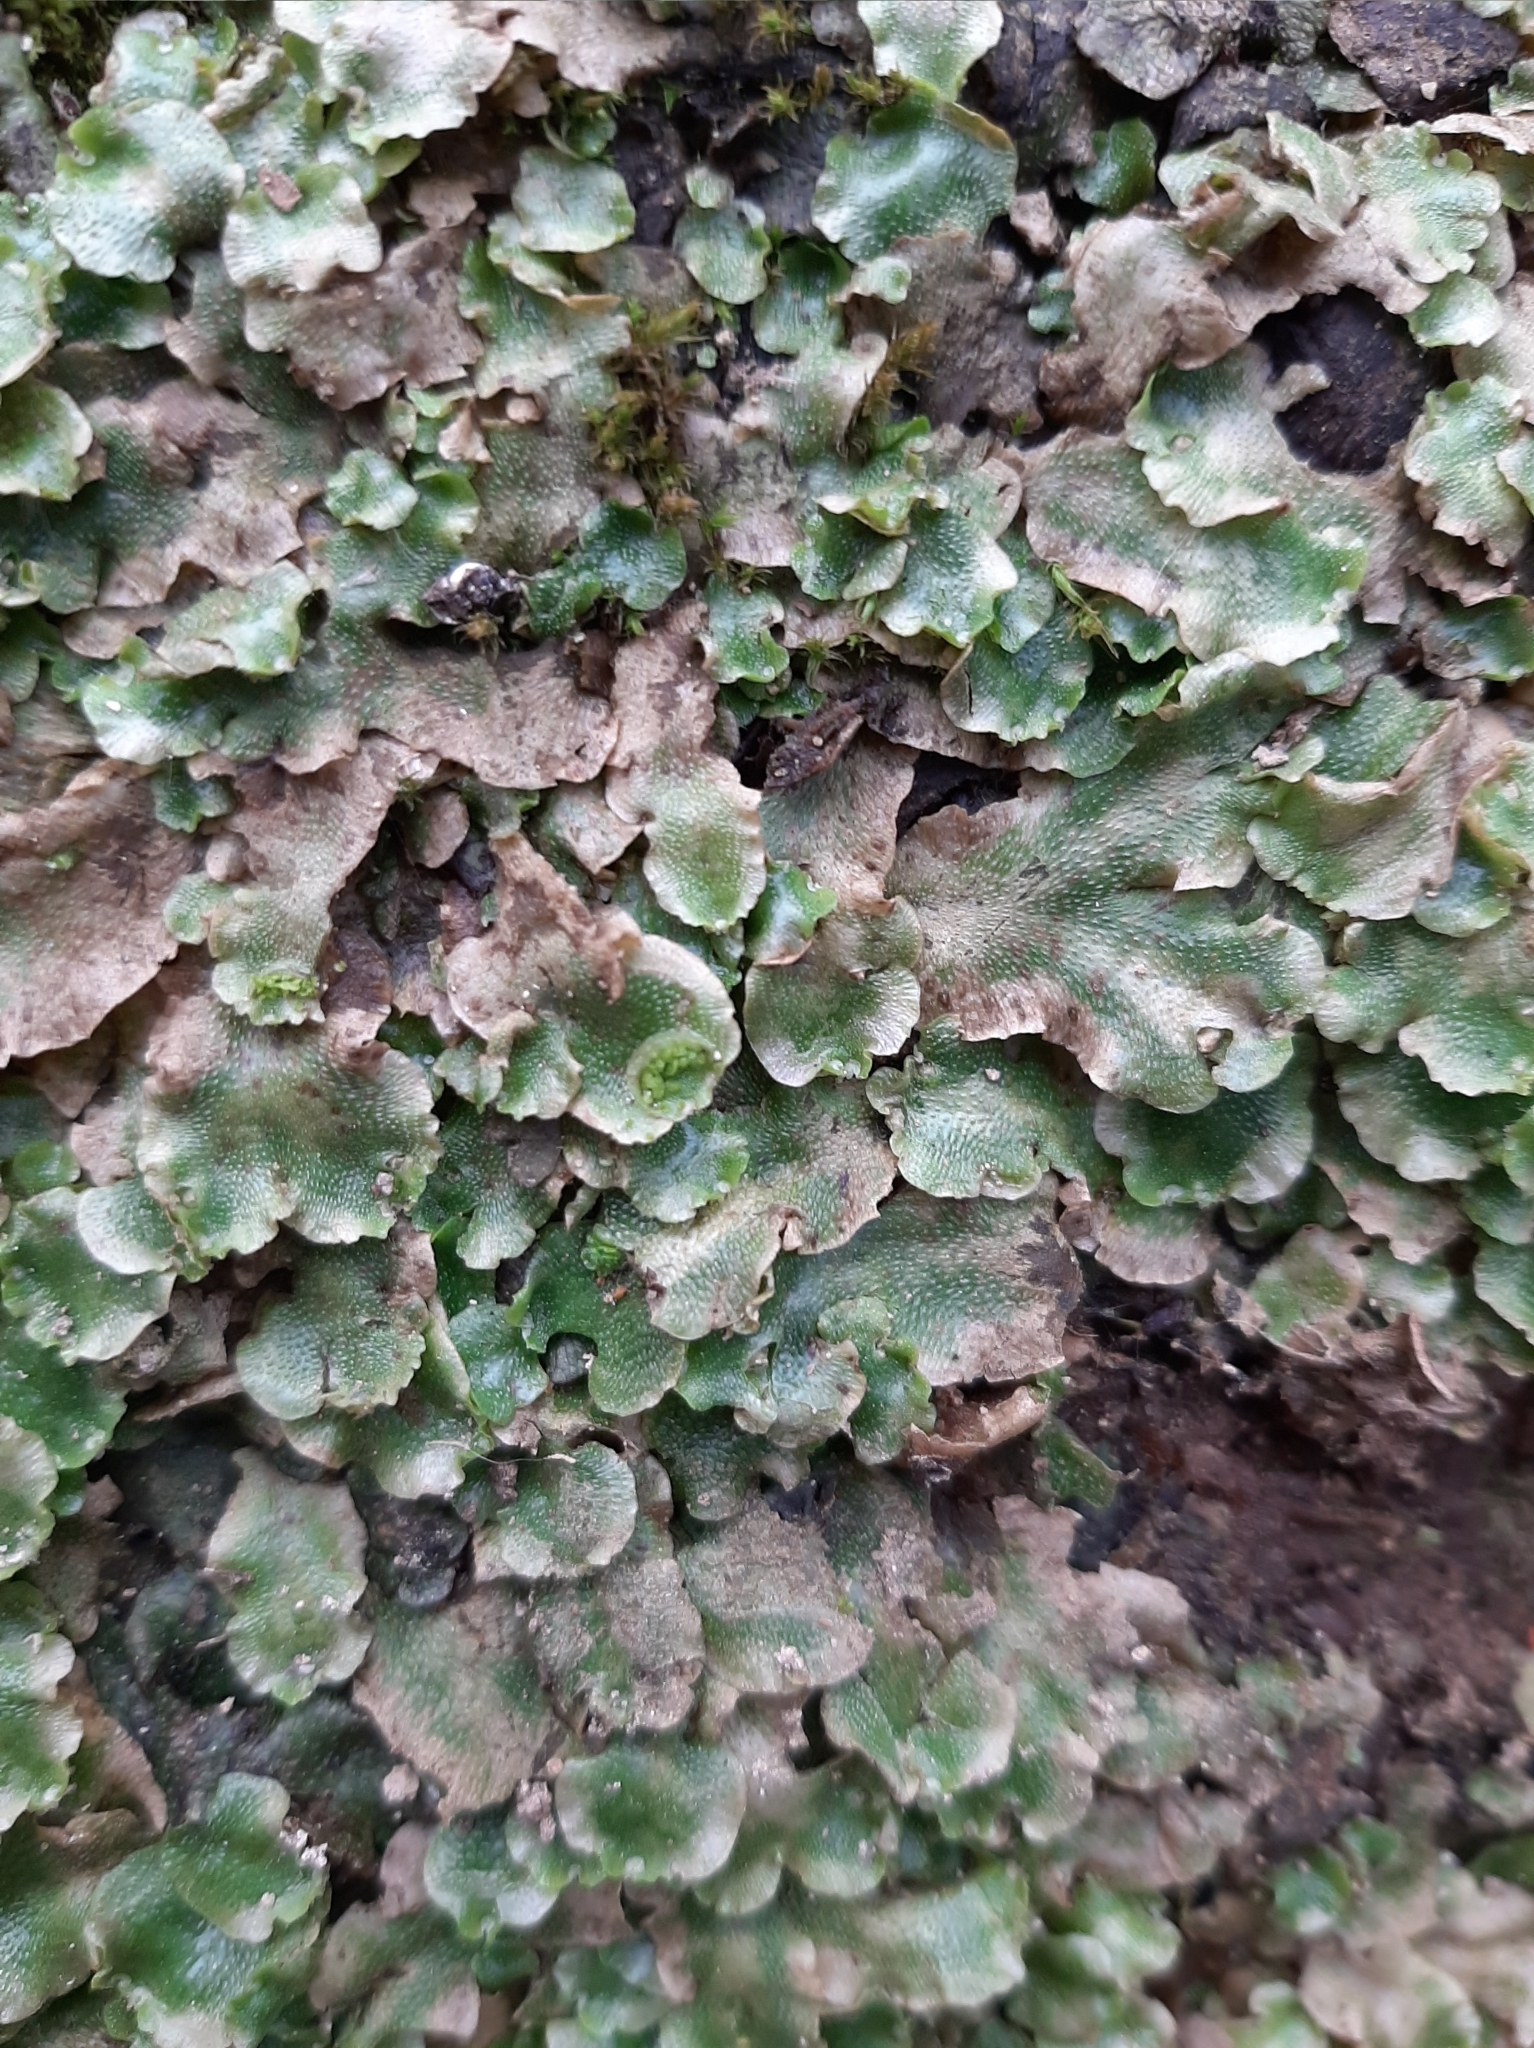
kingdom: Plantae
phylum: Marchantiophyta
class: Marchantiopsida
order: Lunulariales
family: Lunulariaceae
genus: Lunularia
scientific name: Lunularia cruciata
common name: Crescent-cup liverwort
